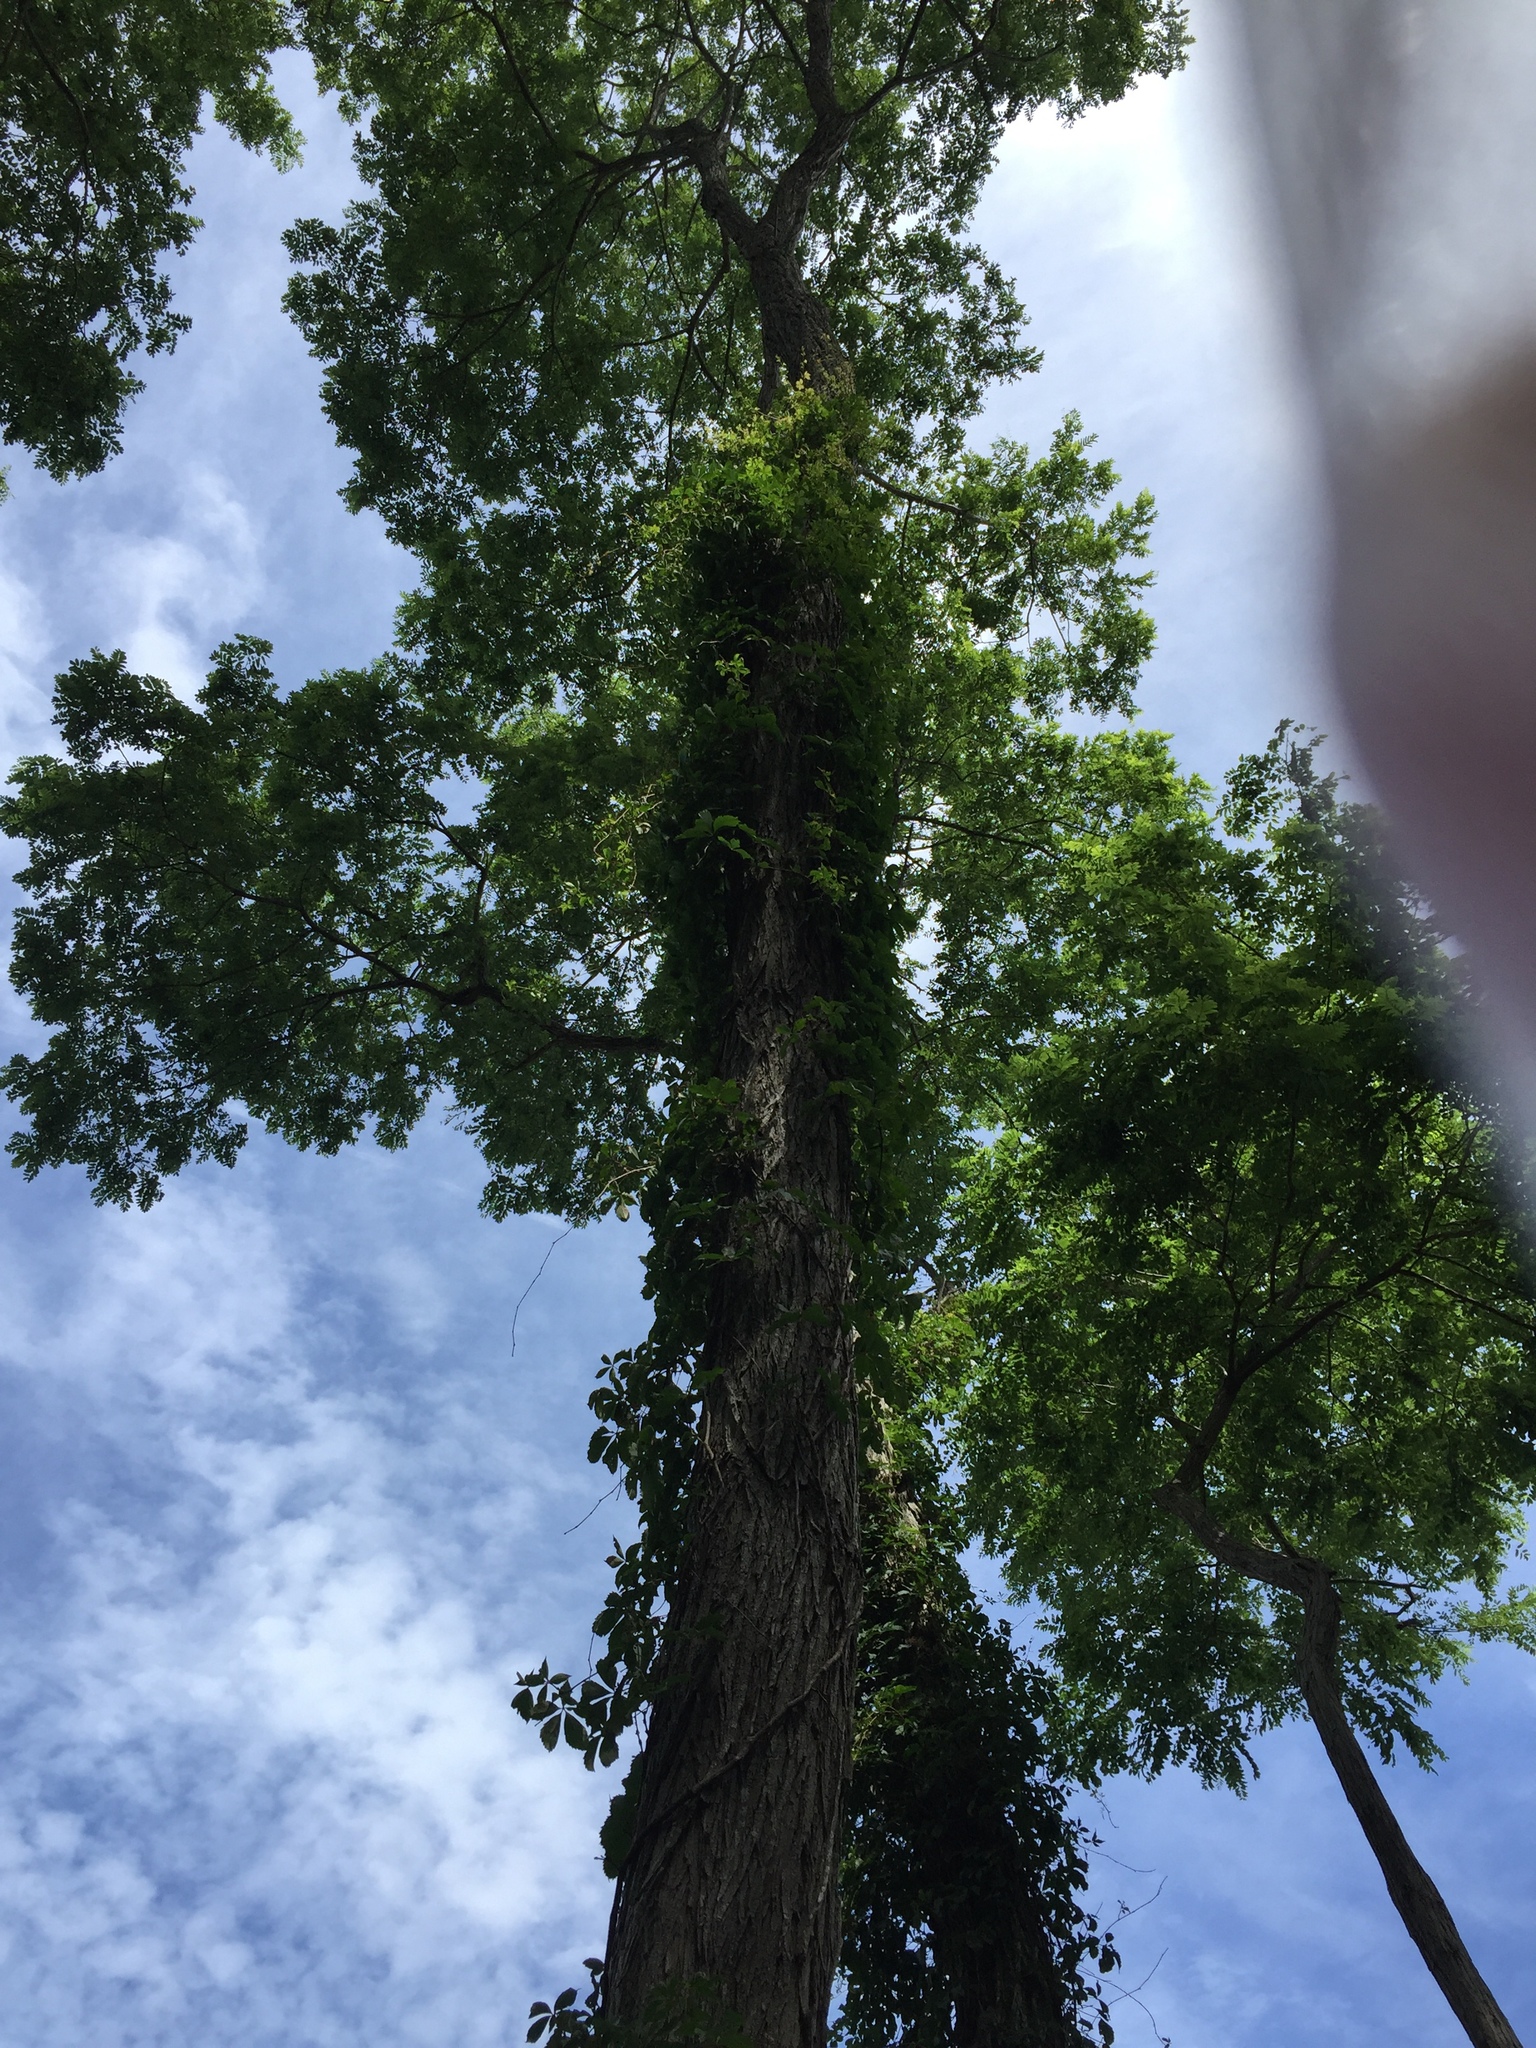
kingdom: Plantae
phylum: Tracheophyta
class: Magnoliopsida
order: Fabales
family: Fabaceae
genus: Robinia
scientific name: Robinia pseudoacacia
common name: Black locust
